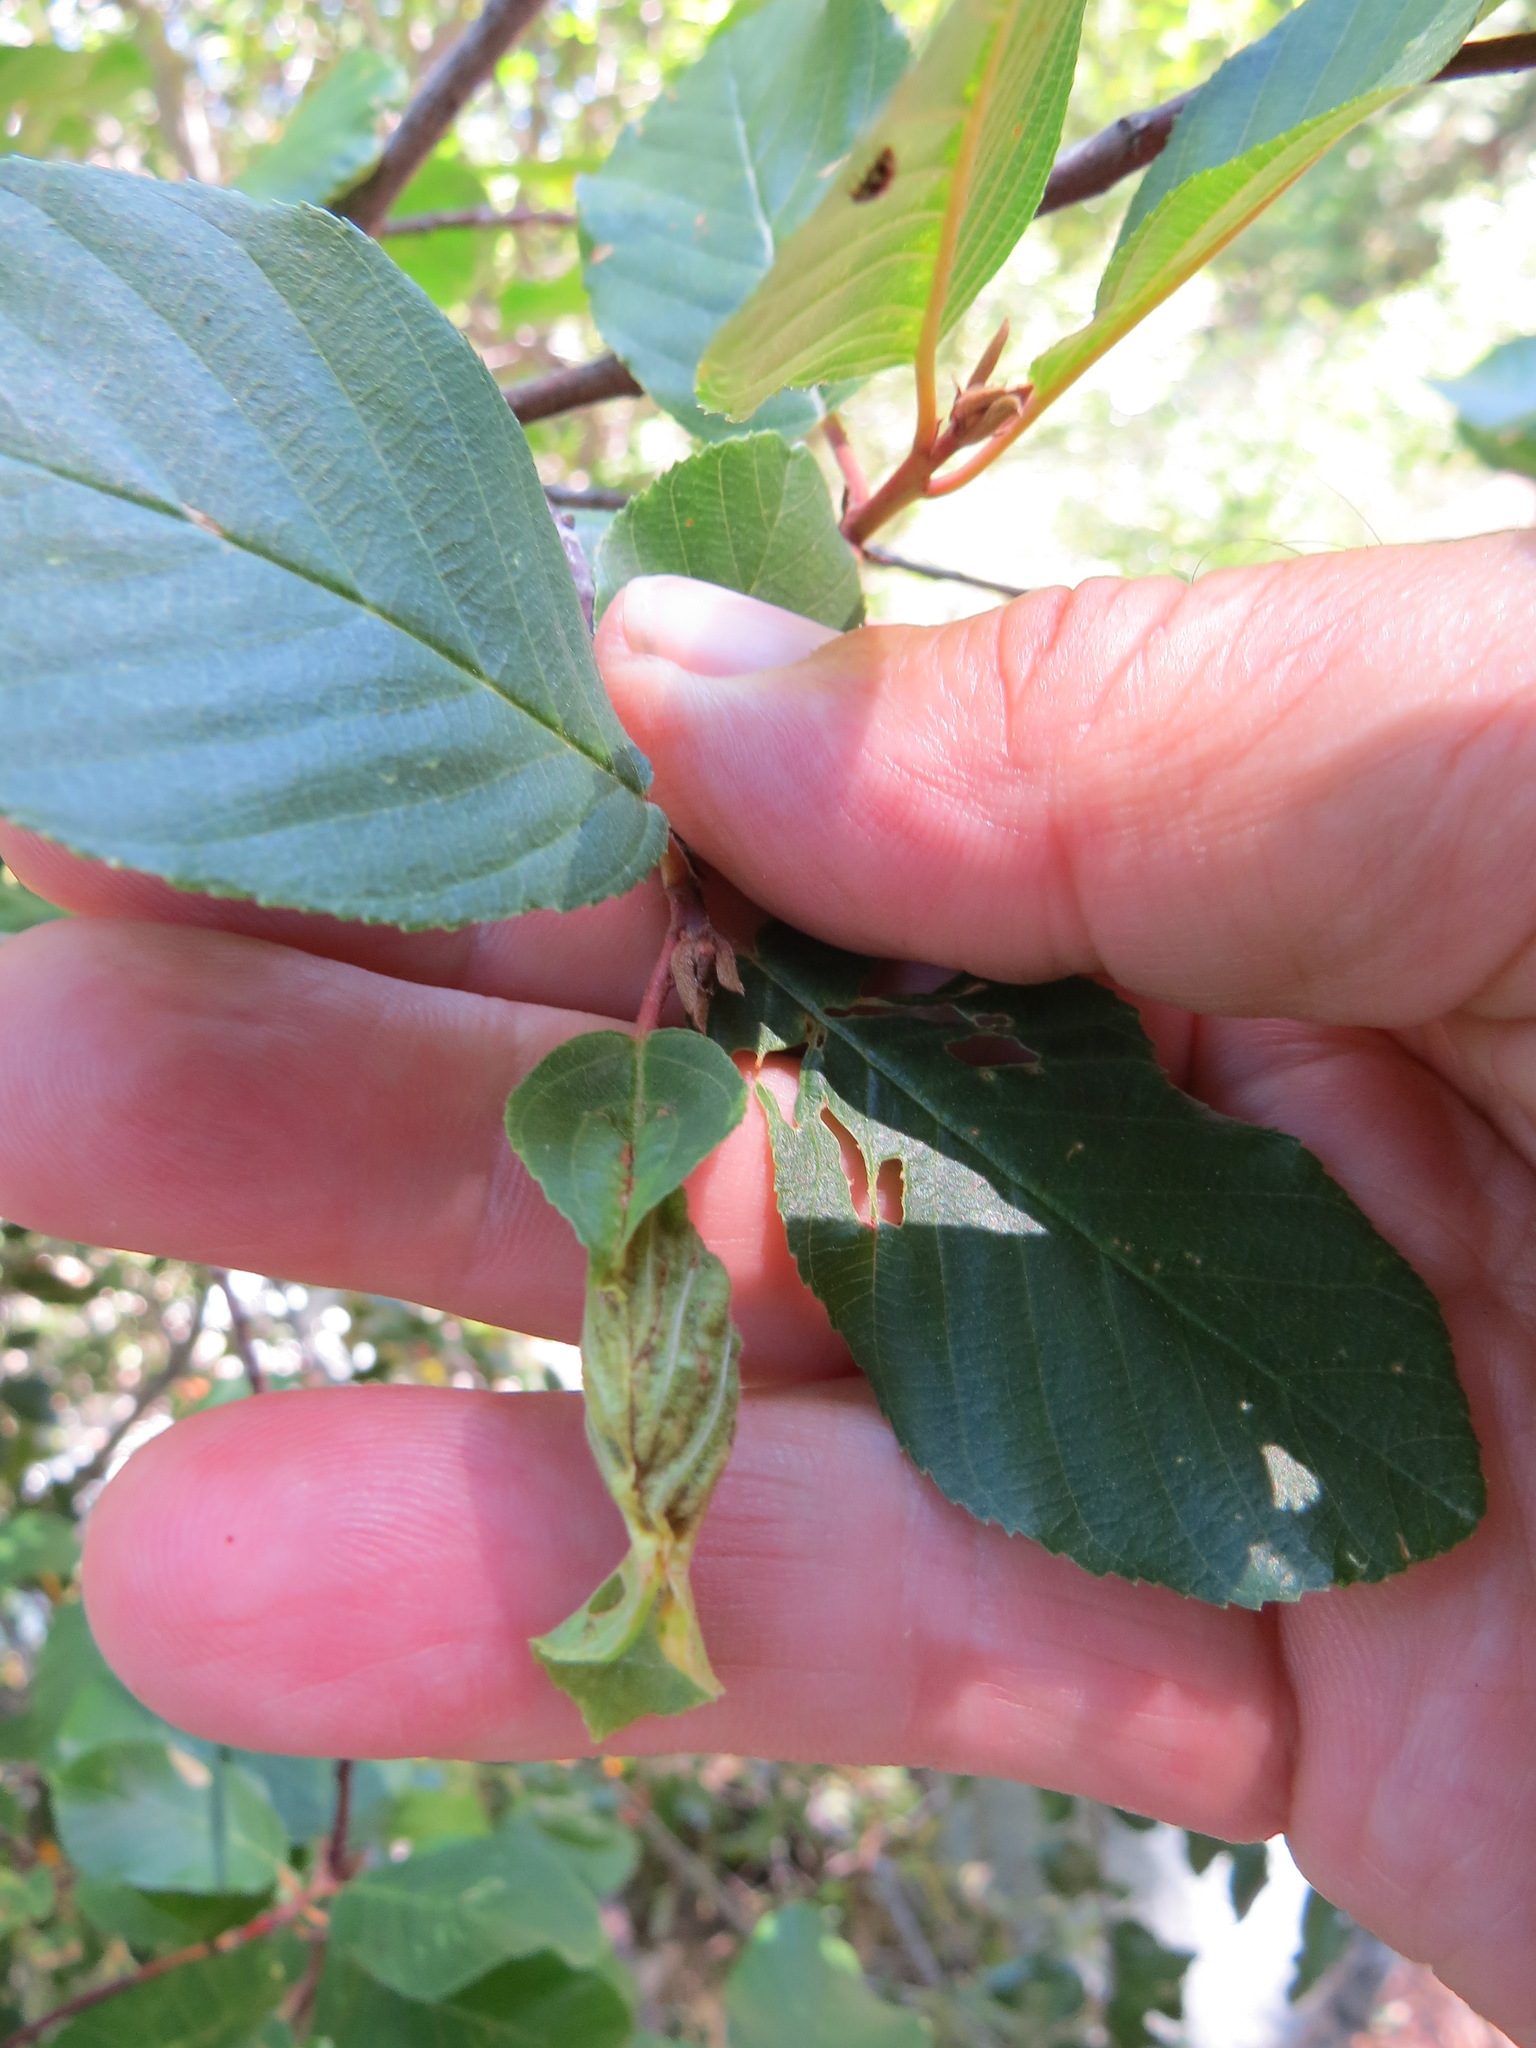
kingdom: Animalia
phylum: Arthropoda
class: Insecta
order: Lepidoptera
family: Cosmopterigidae
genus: Sorhagenia
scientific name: Sorhagenia nimbosus
